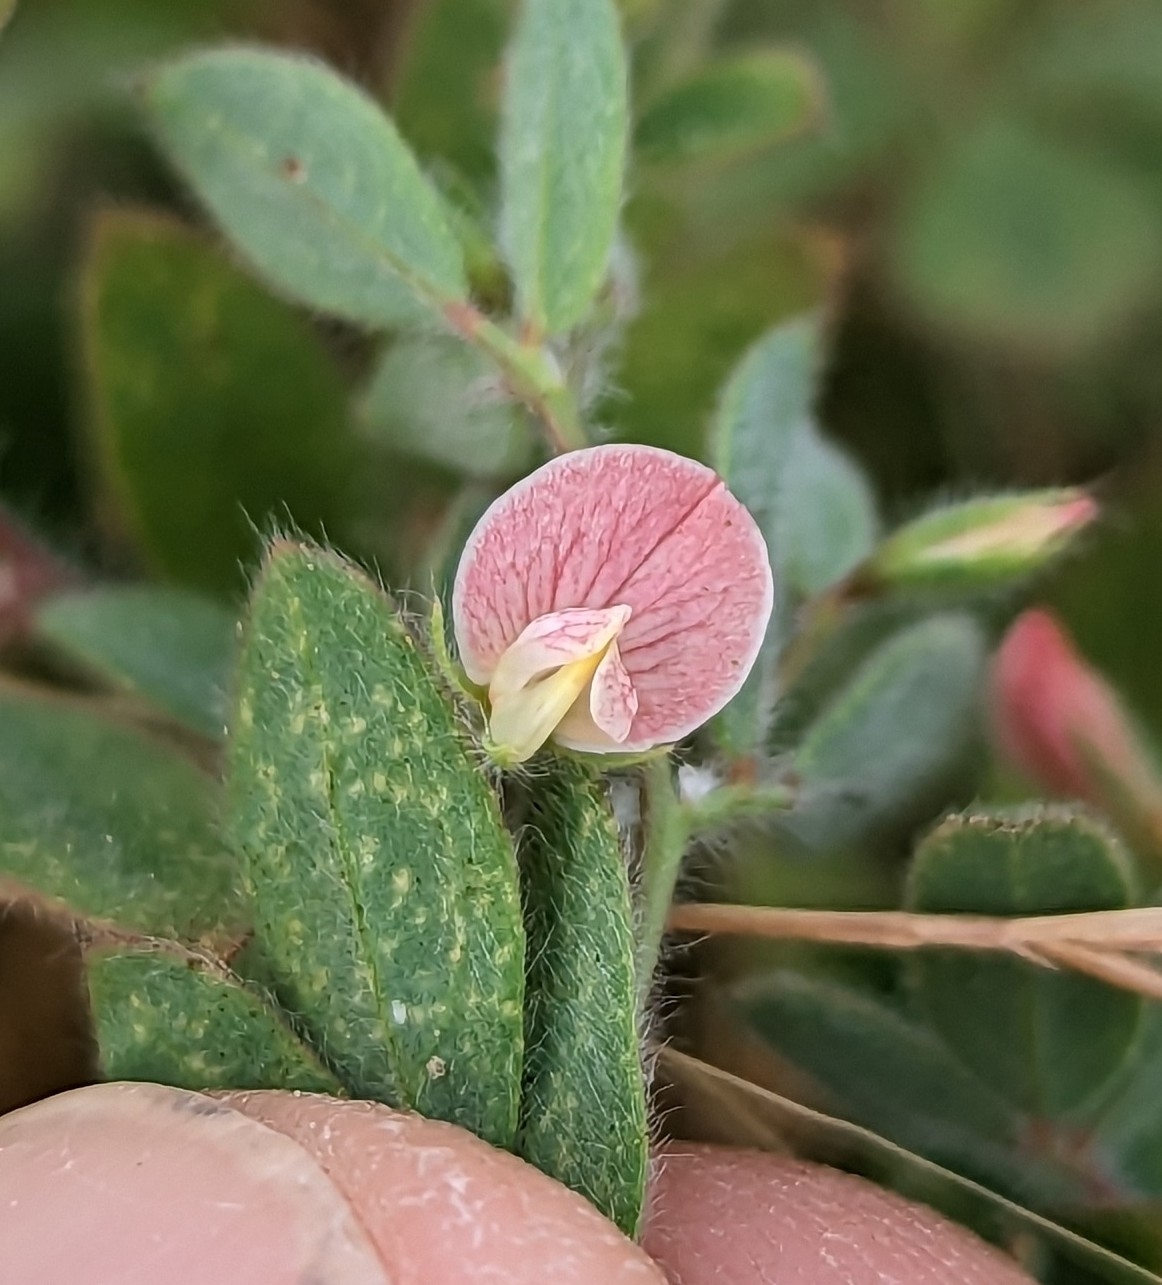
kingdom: Plantae
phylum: Tracheophyta
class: Magnoliopsida
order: Fabales
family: Fabaceae
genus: Acmispon
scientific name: Acmispon americanus
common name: American bird's-foot trefoil
